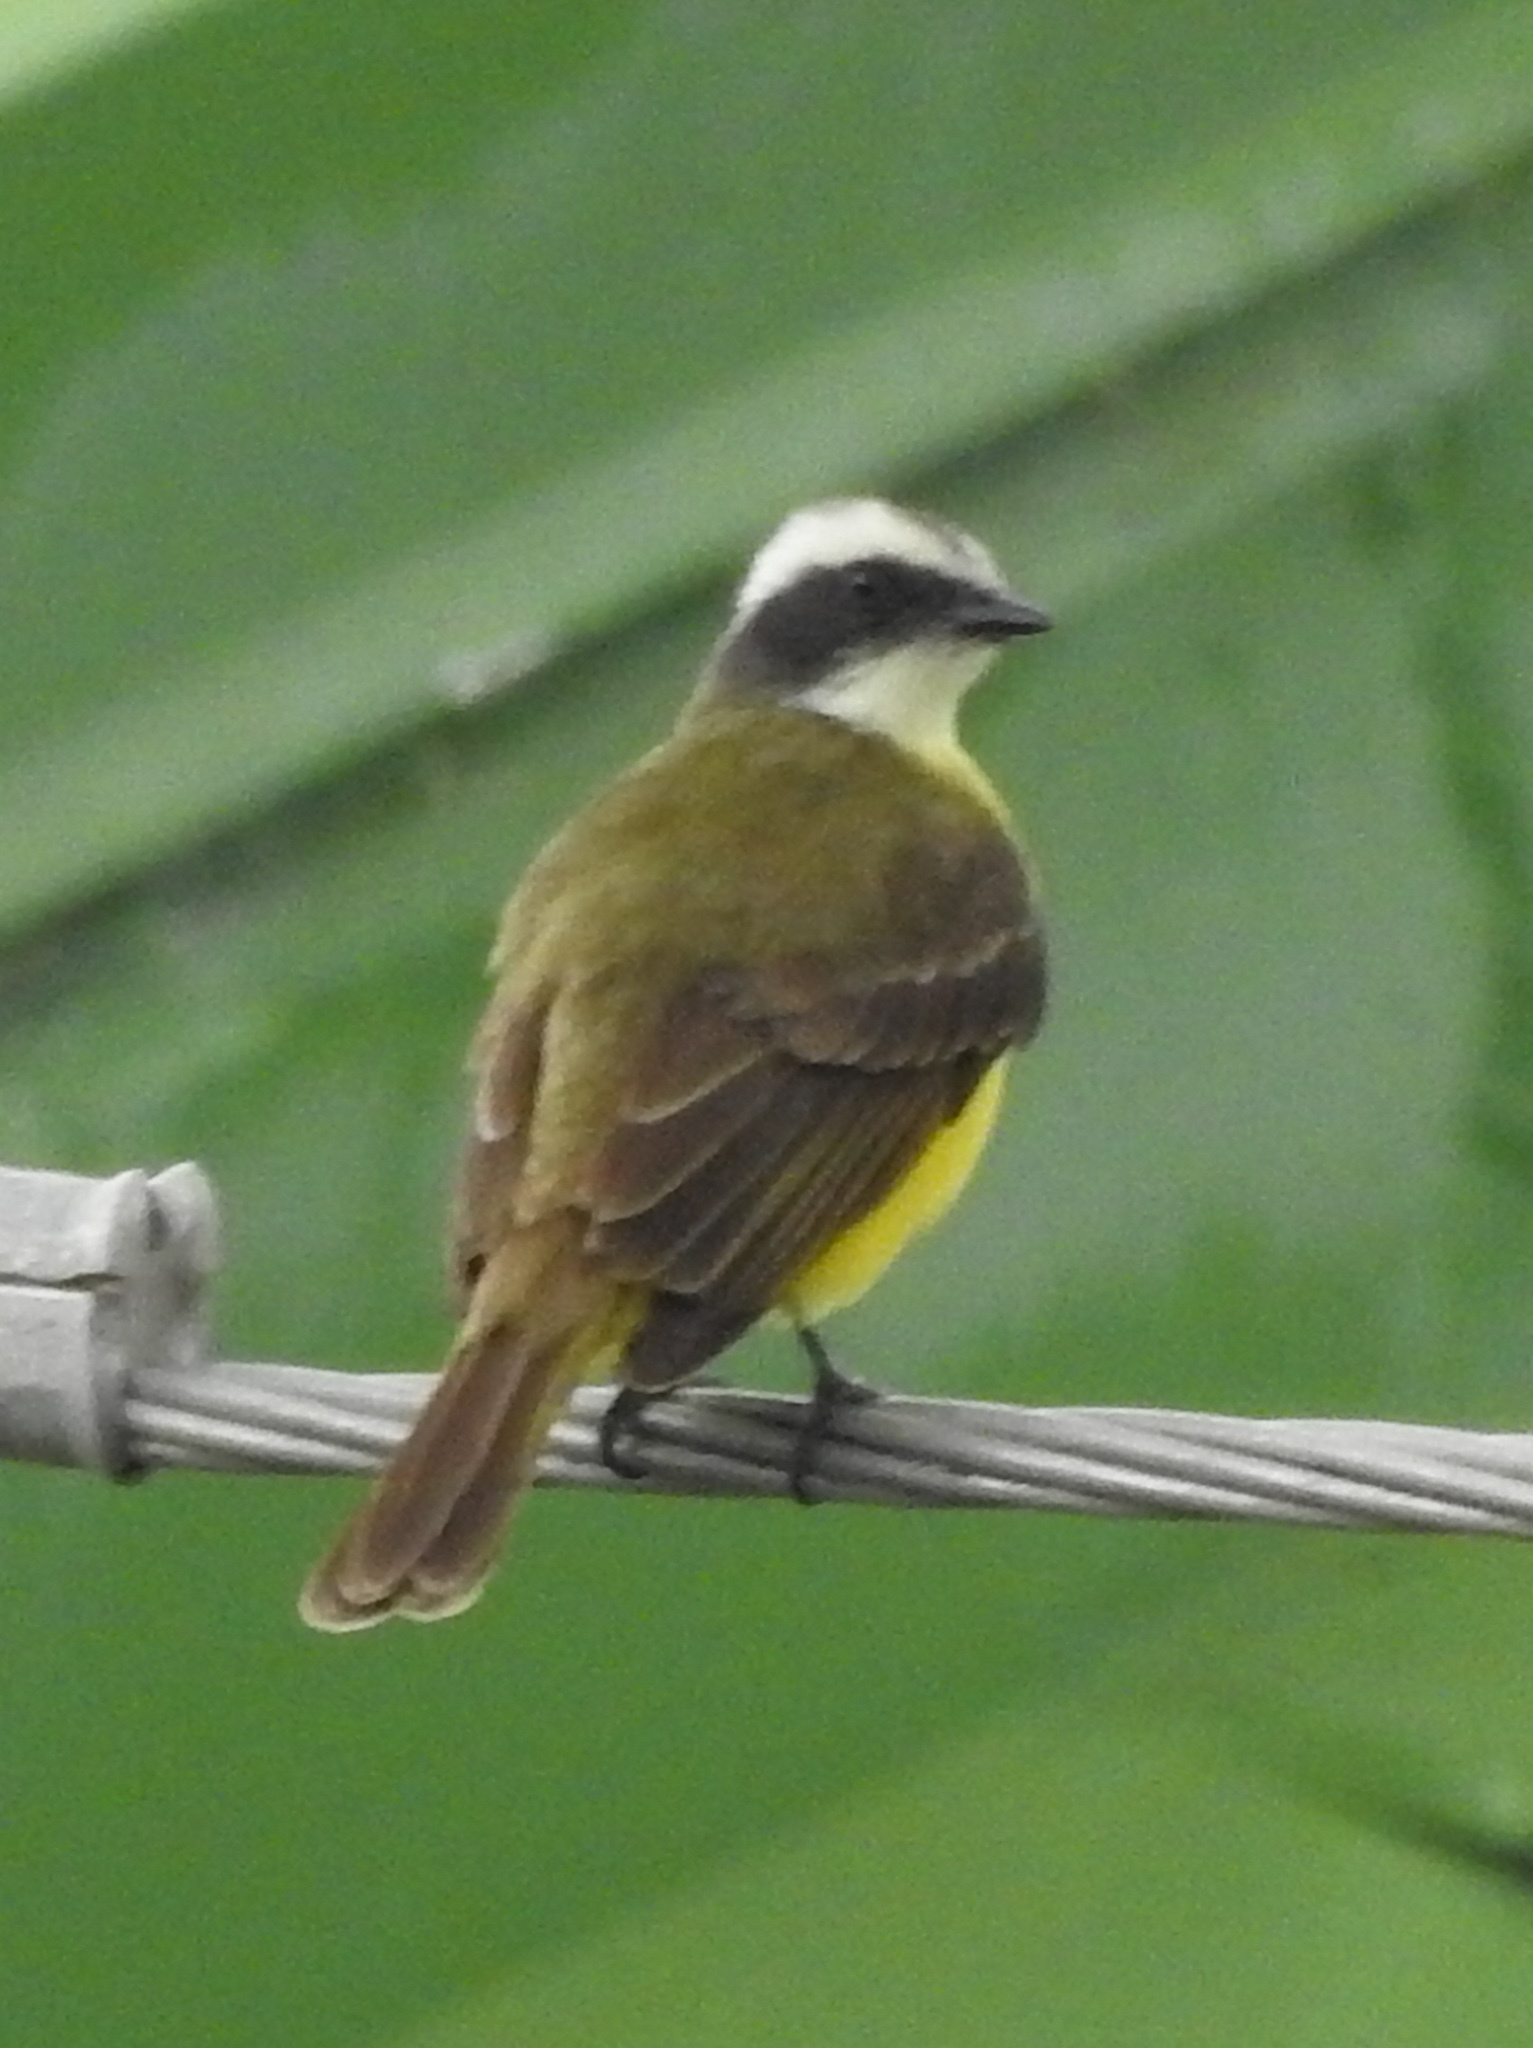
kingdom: Animalia
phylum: Chordata
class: Aves
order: Passeriformes
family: Tyrannidae
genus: Myiozetetes
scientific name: Myiozetetes similis
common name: Social flycatcher
